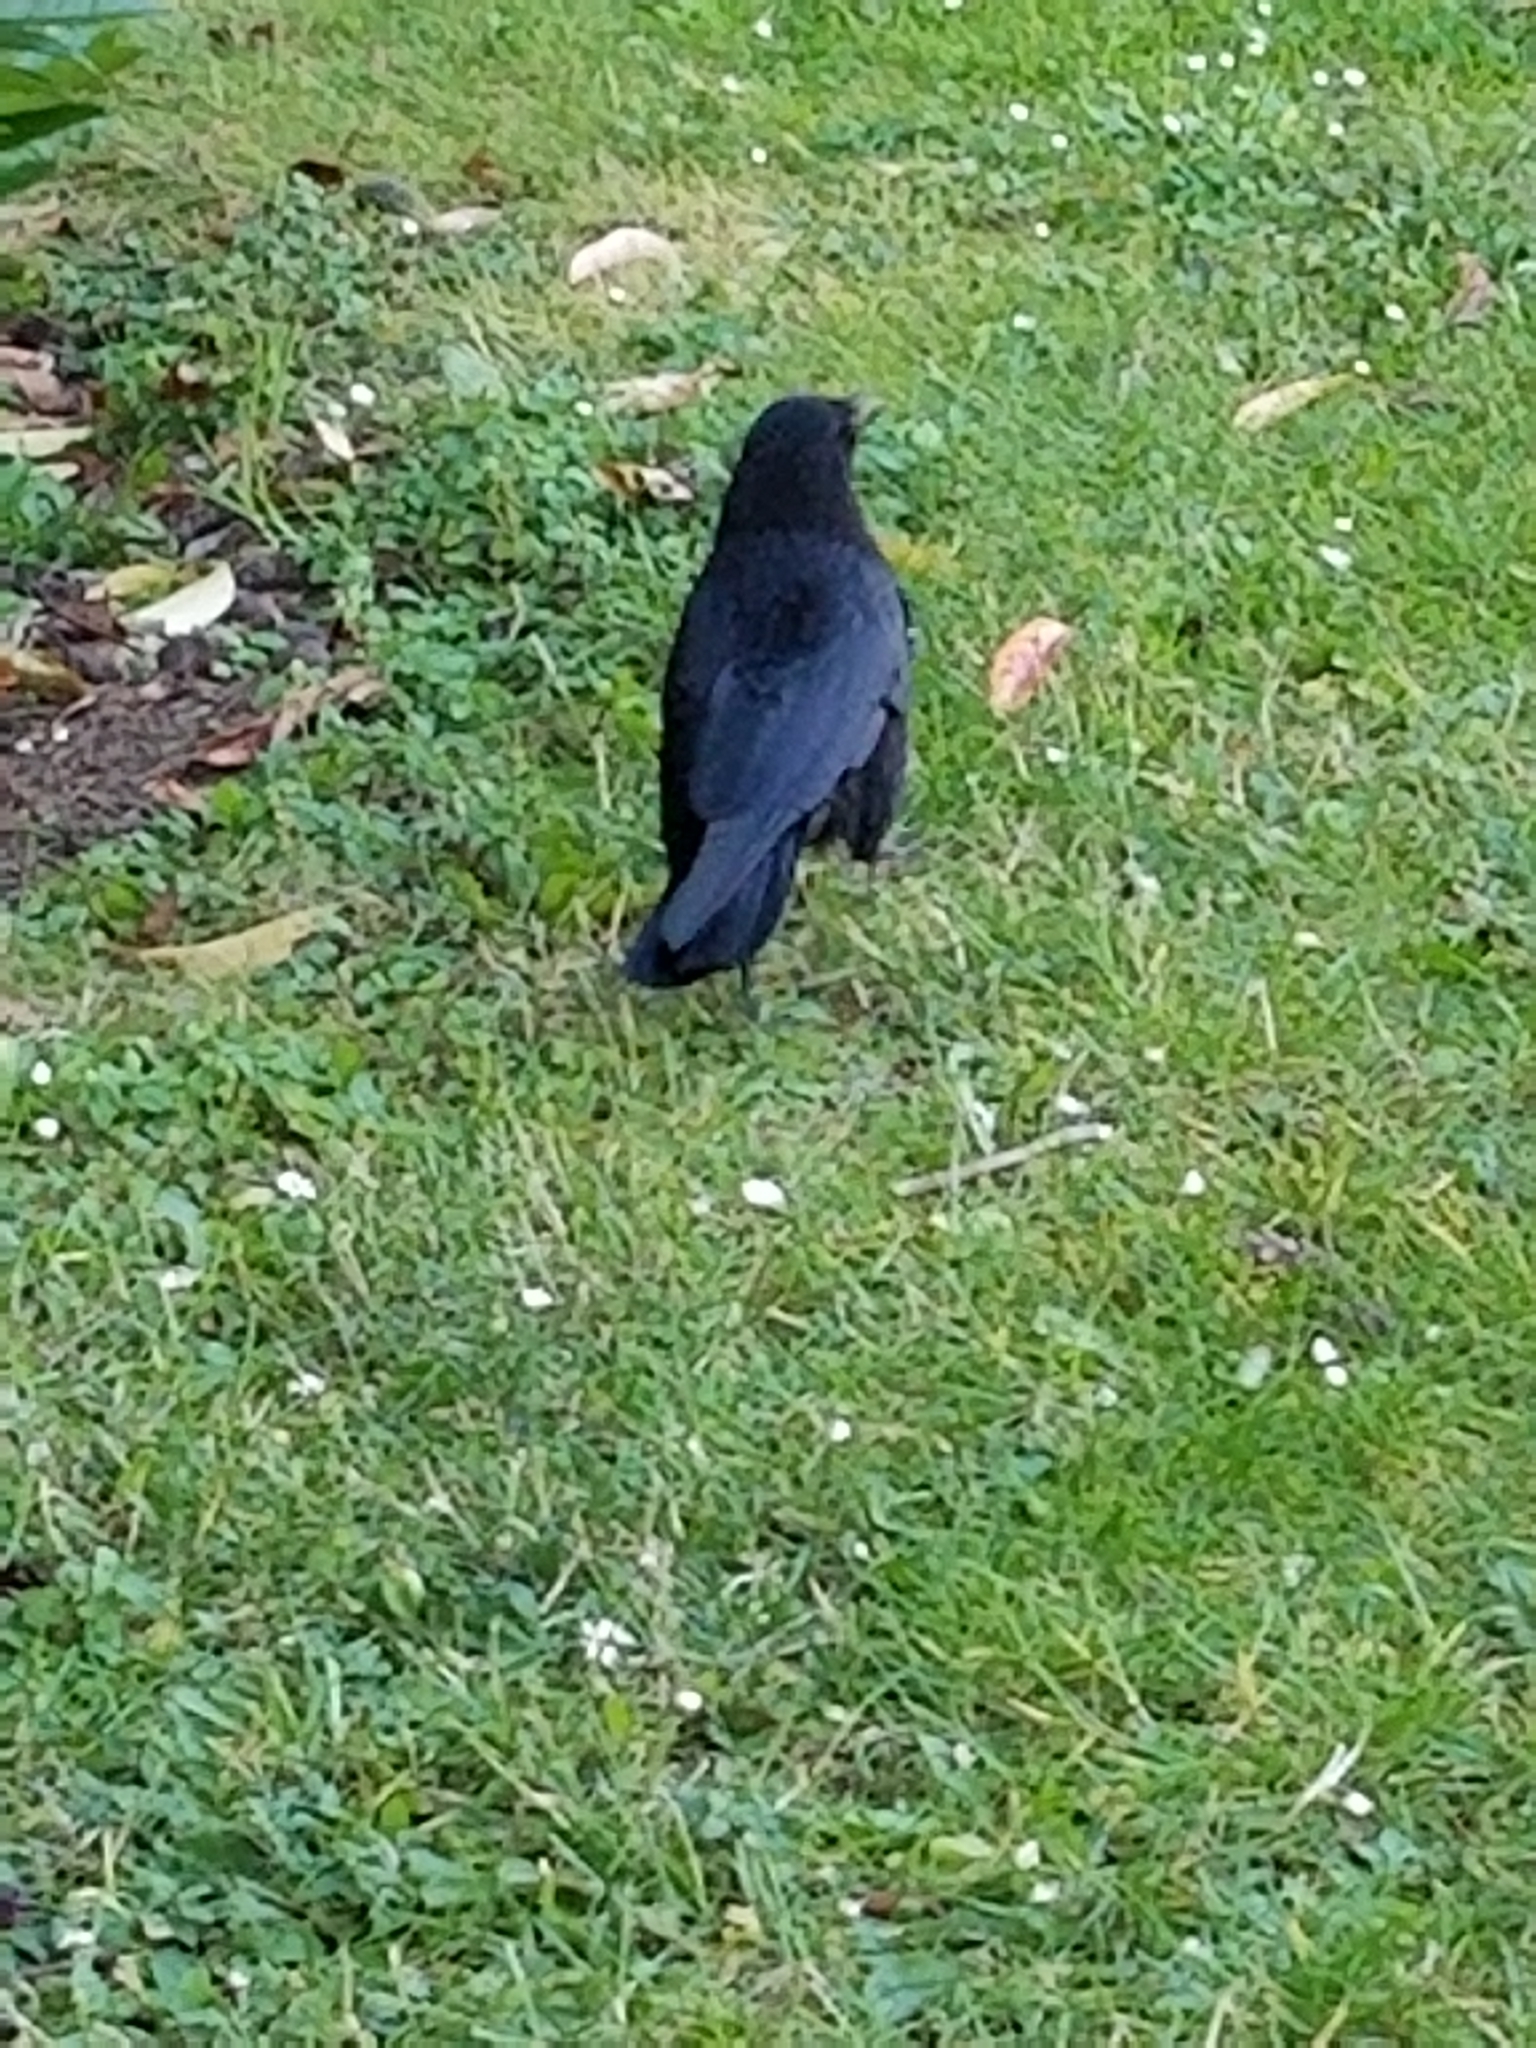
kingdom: Animalia
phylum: Chordata
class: Aves
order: Passeriformes
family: Corvidae
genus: Corvus
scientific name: Corvus brachyrhynchos
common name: American crow
